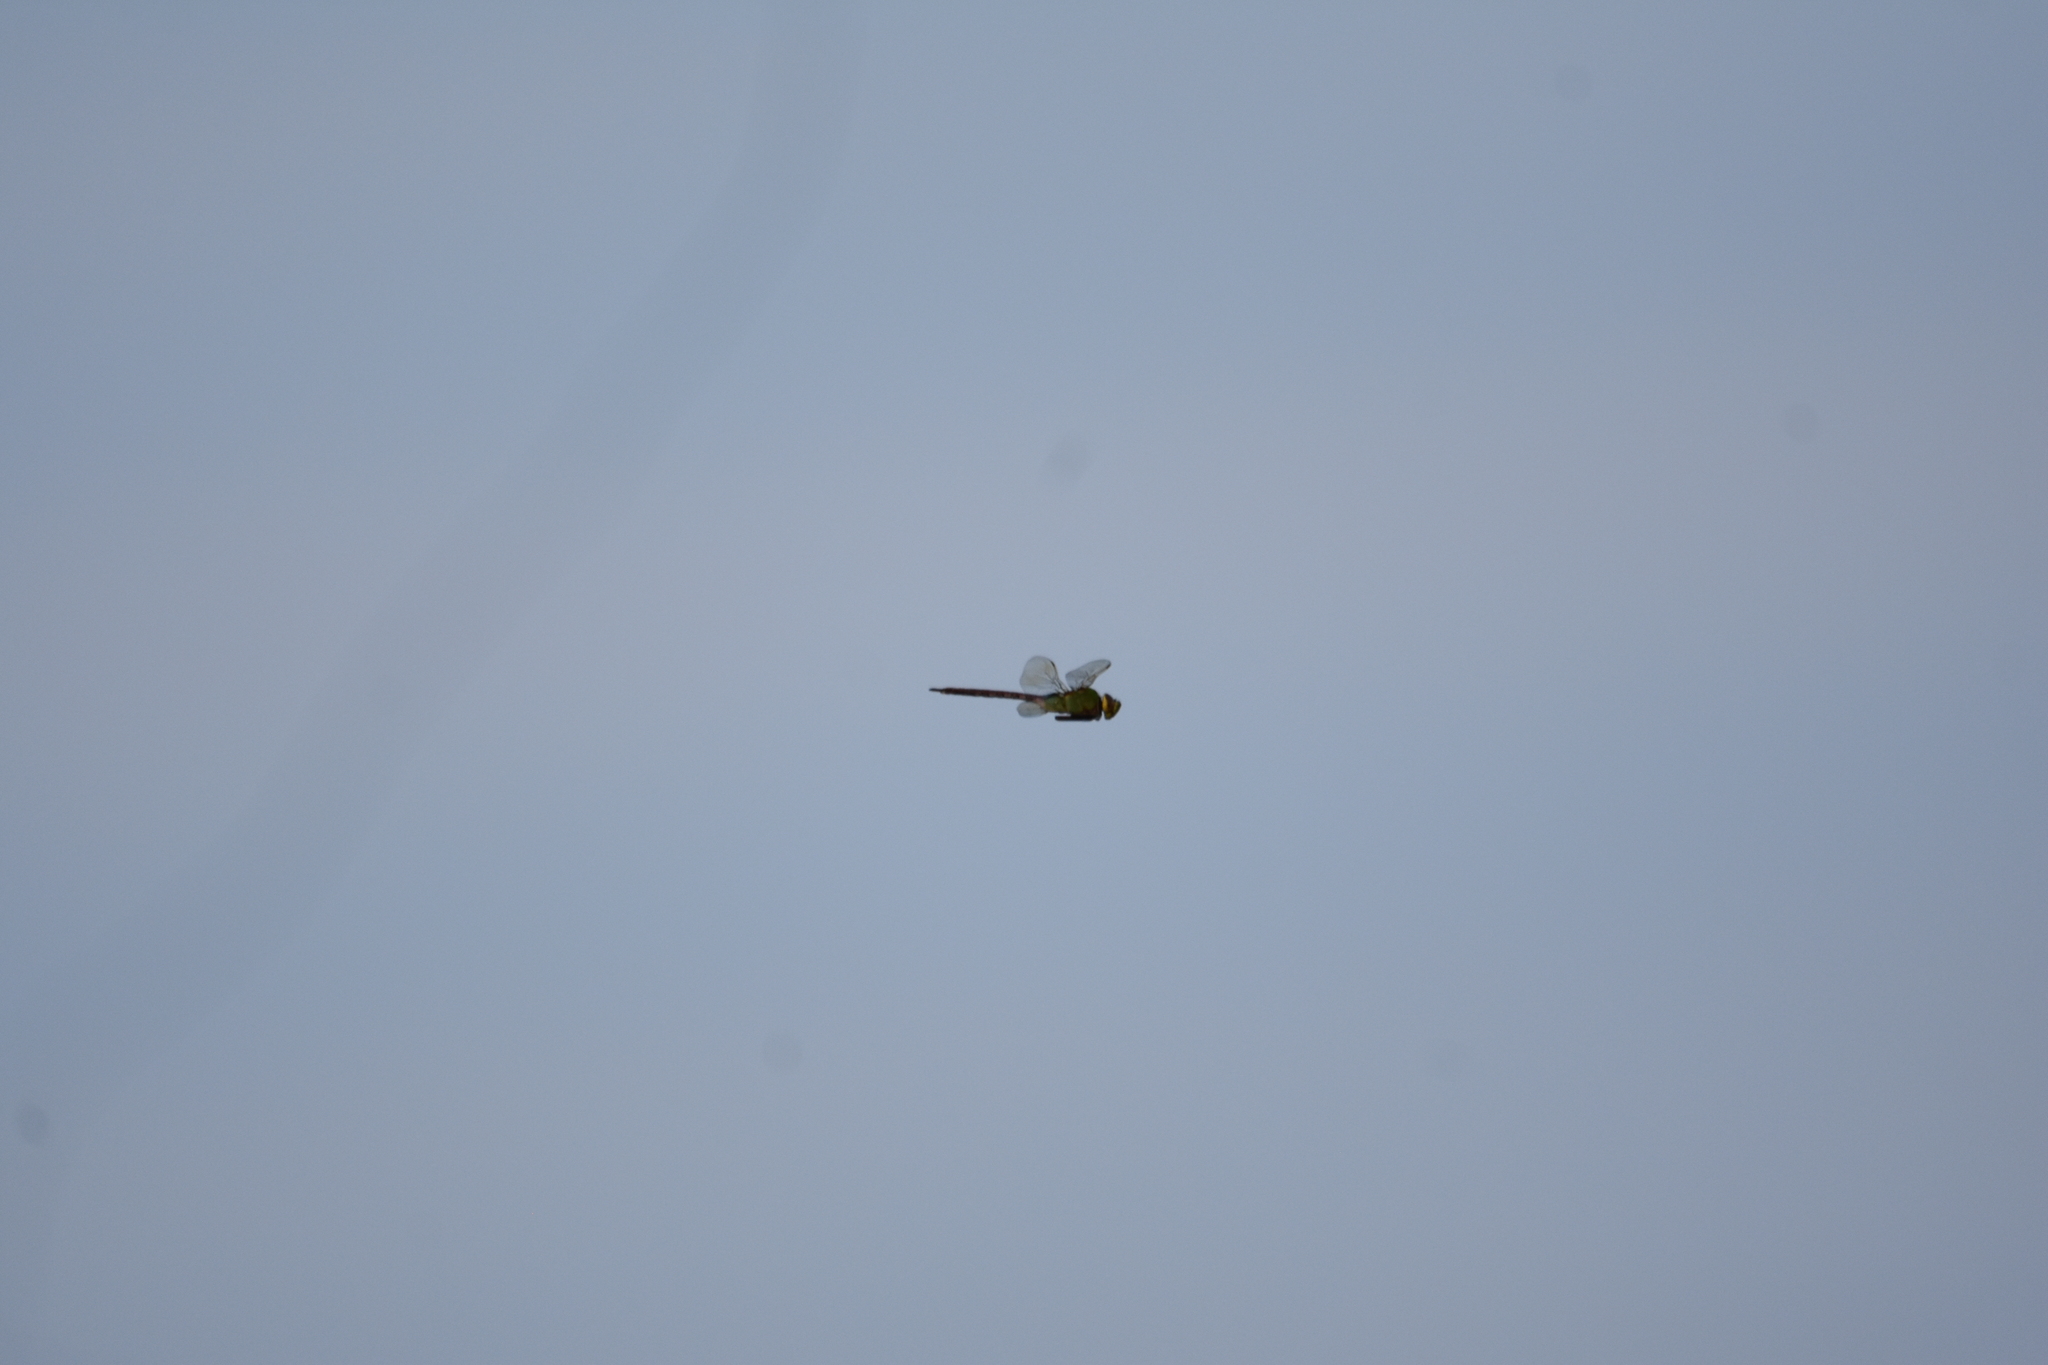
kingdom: Animalia
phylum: Arthropoda
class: Insecta
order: Odonata
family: Aeshnidae
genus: Anax
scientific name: Anax junius
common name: Common green darner
